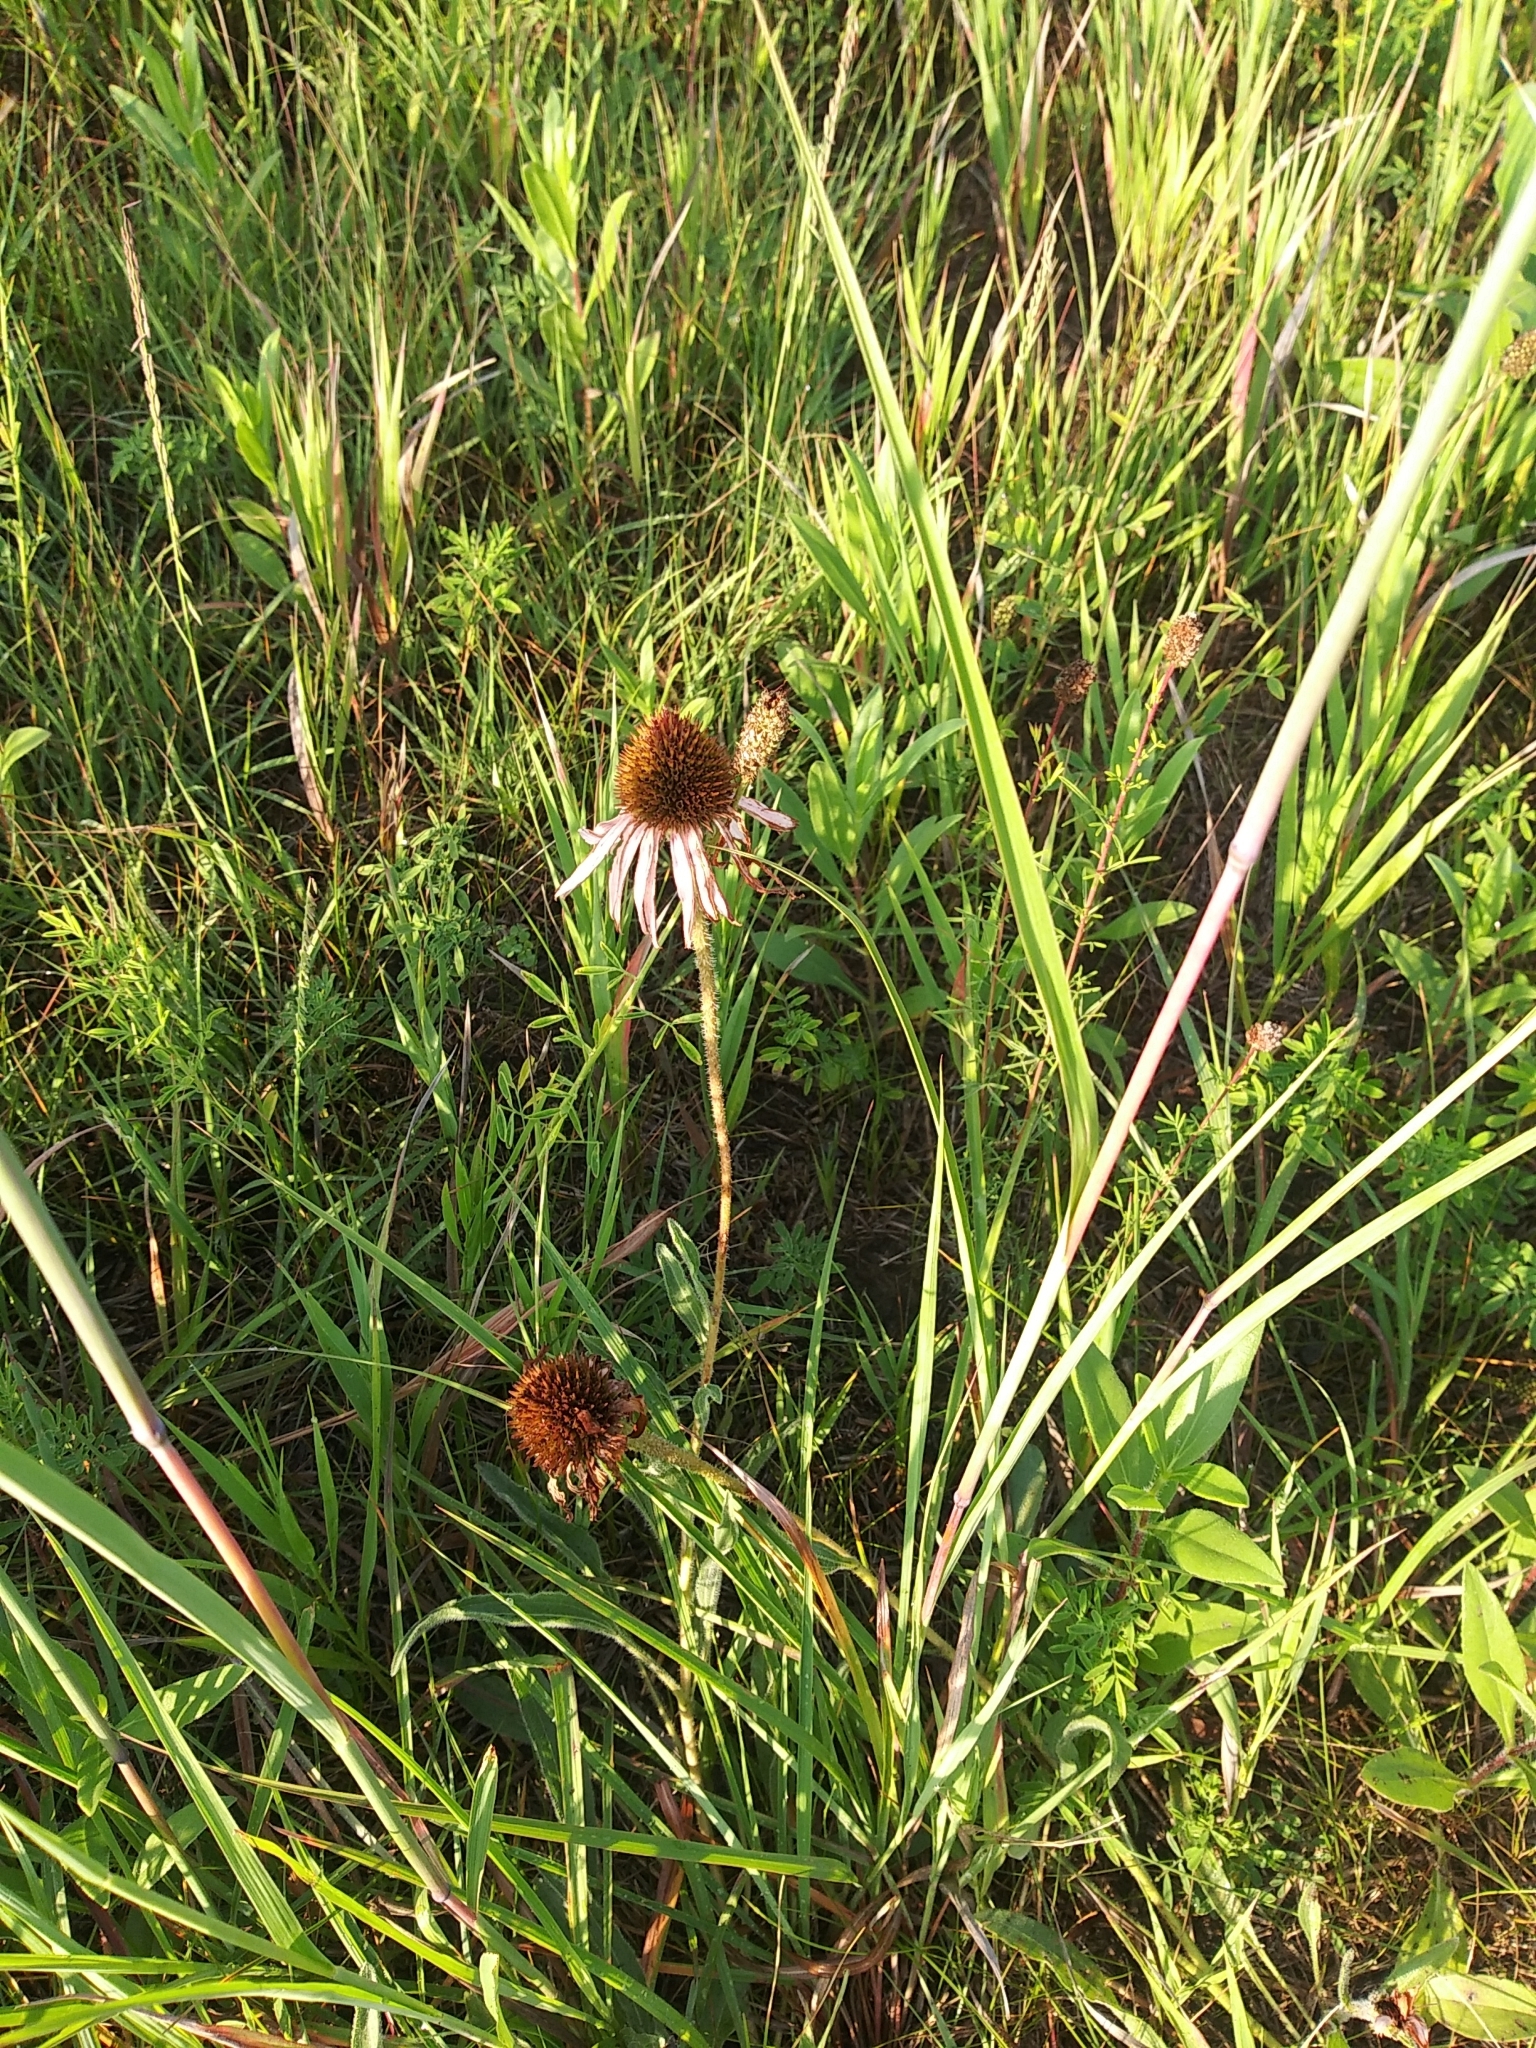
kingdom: Plantae
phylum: Tracheophyta
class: Magnoliopsida
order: Asterales
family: Asteraceae
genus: Echinacea
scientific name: Echinacea angustifolia
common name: Black-sampson echinacea
